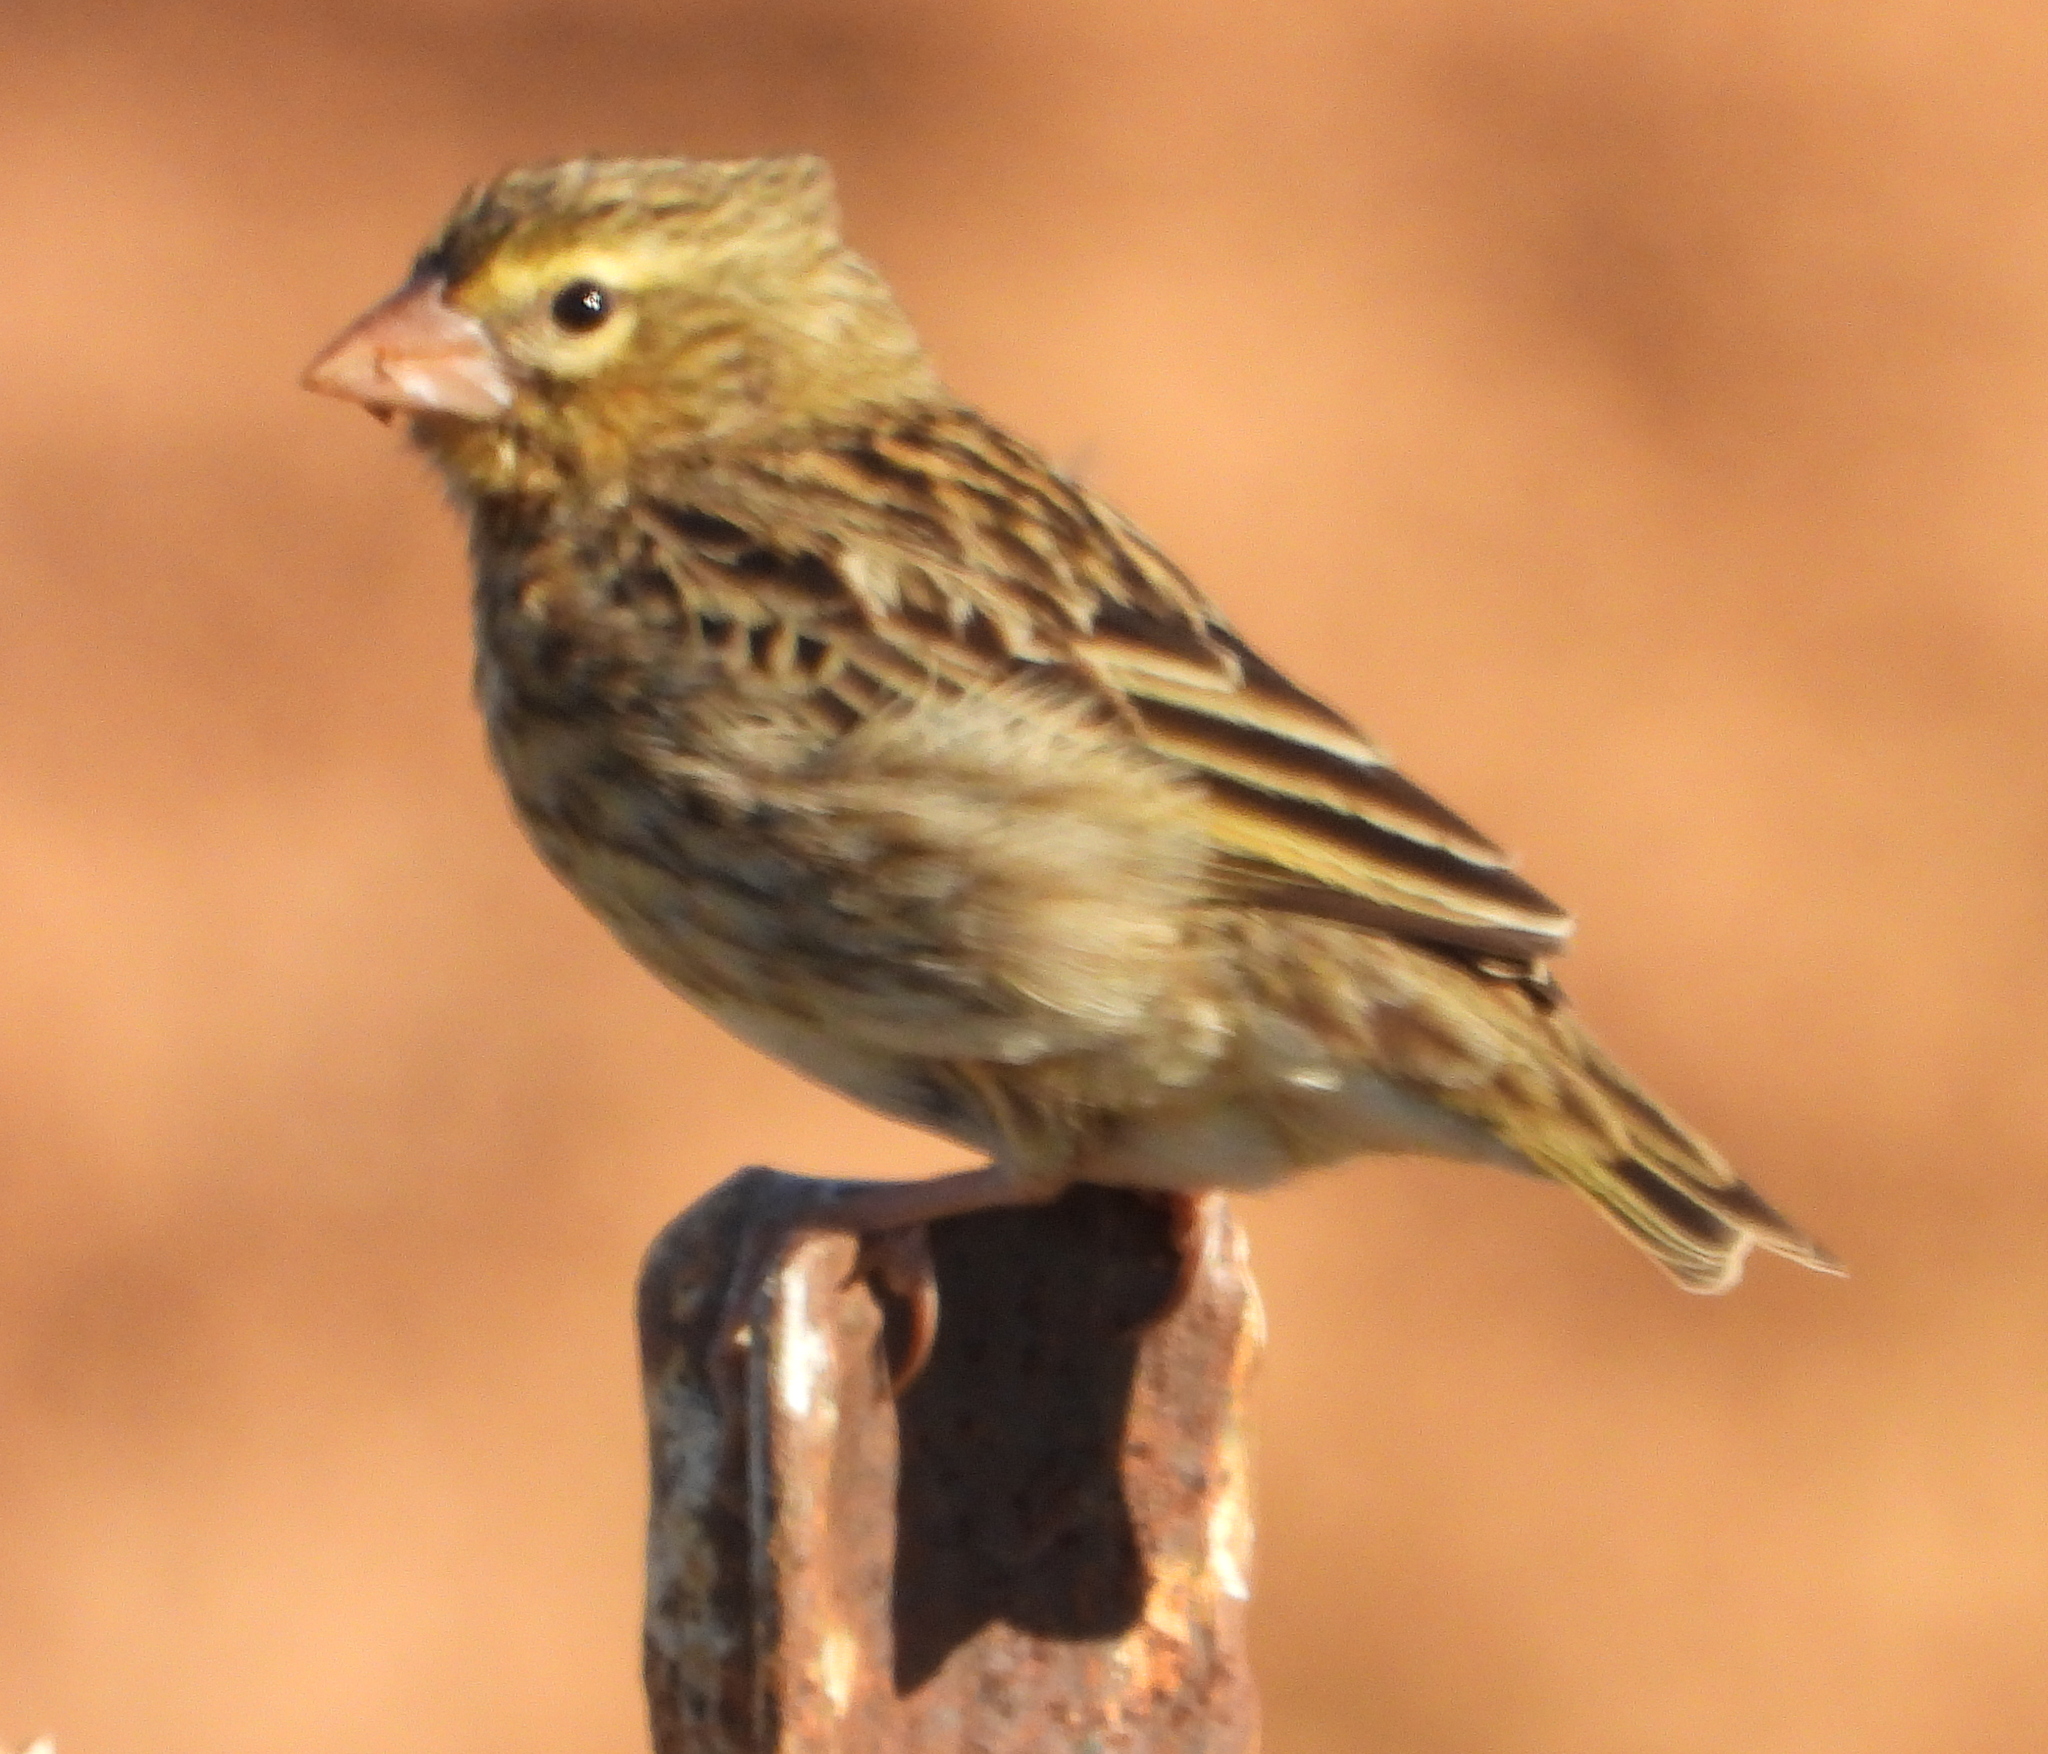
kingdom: Animalia
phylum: Chordata
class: Aves
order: Passeriformes
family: Ploceidae
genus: Euplectes
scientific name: Euplectes orix
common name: Southern red bishop
